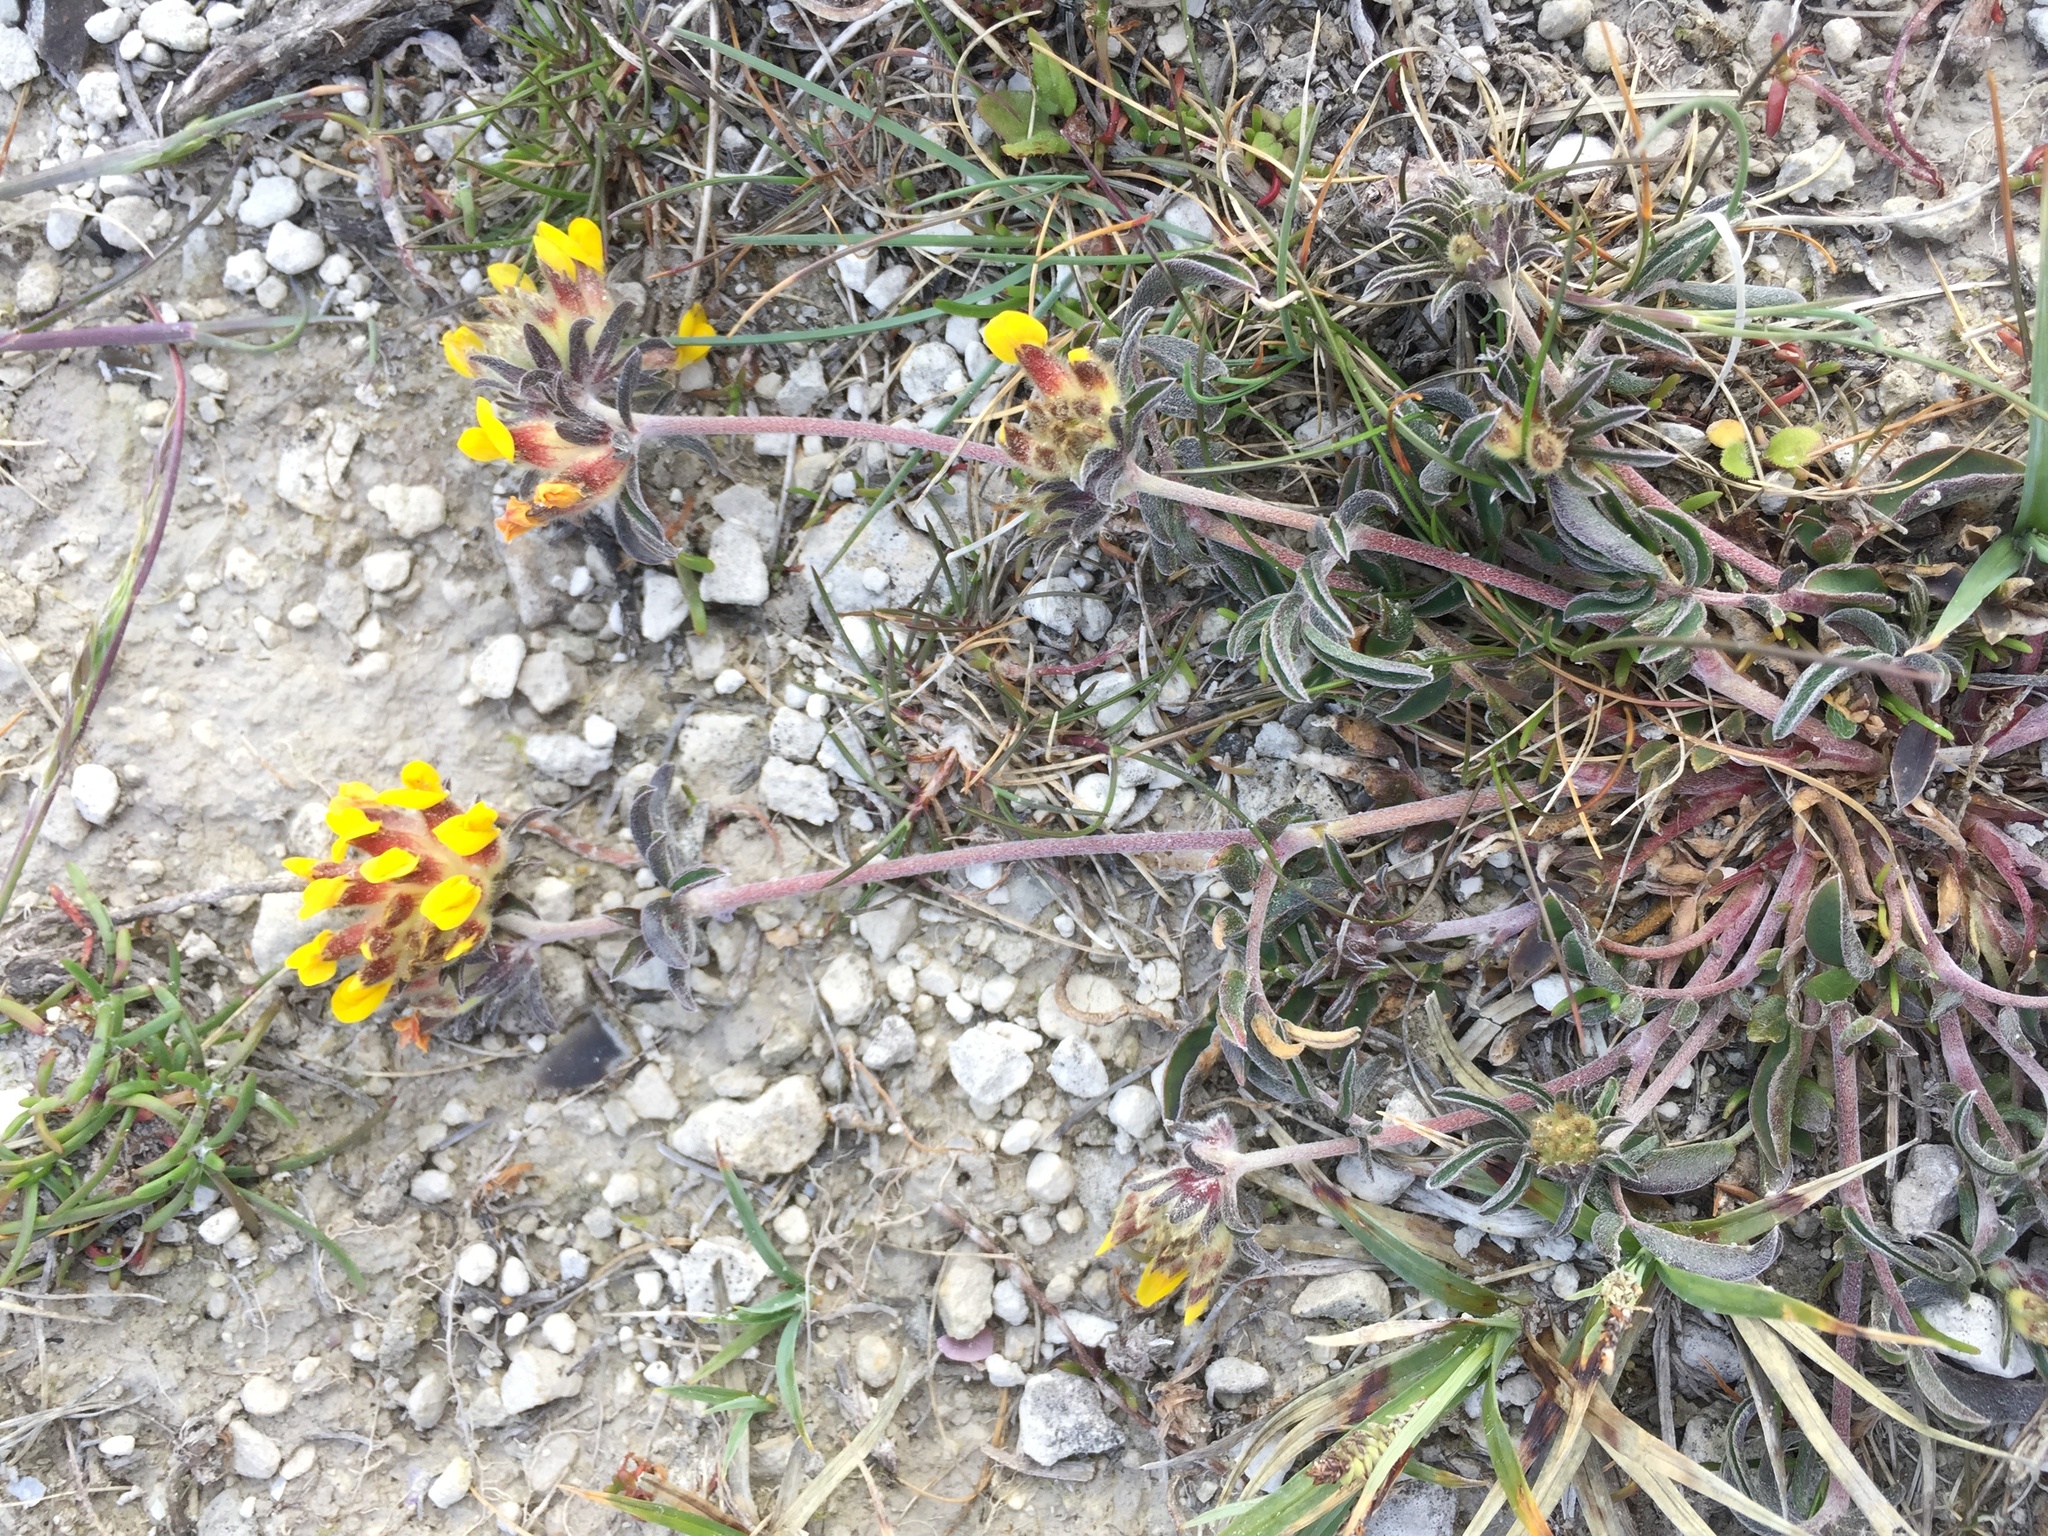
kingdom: Plantae
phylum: Tracheophyta
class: Magnoliopsida
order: Fabales
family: Fabaceae
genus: Anthyllis
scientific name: Anthyllis vulneraria
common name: Kidney vetch
